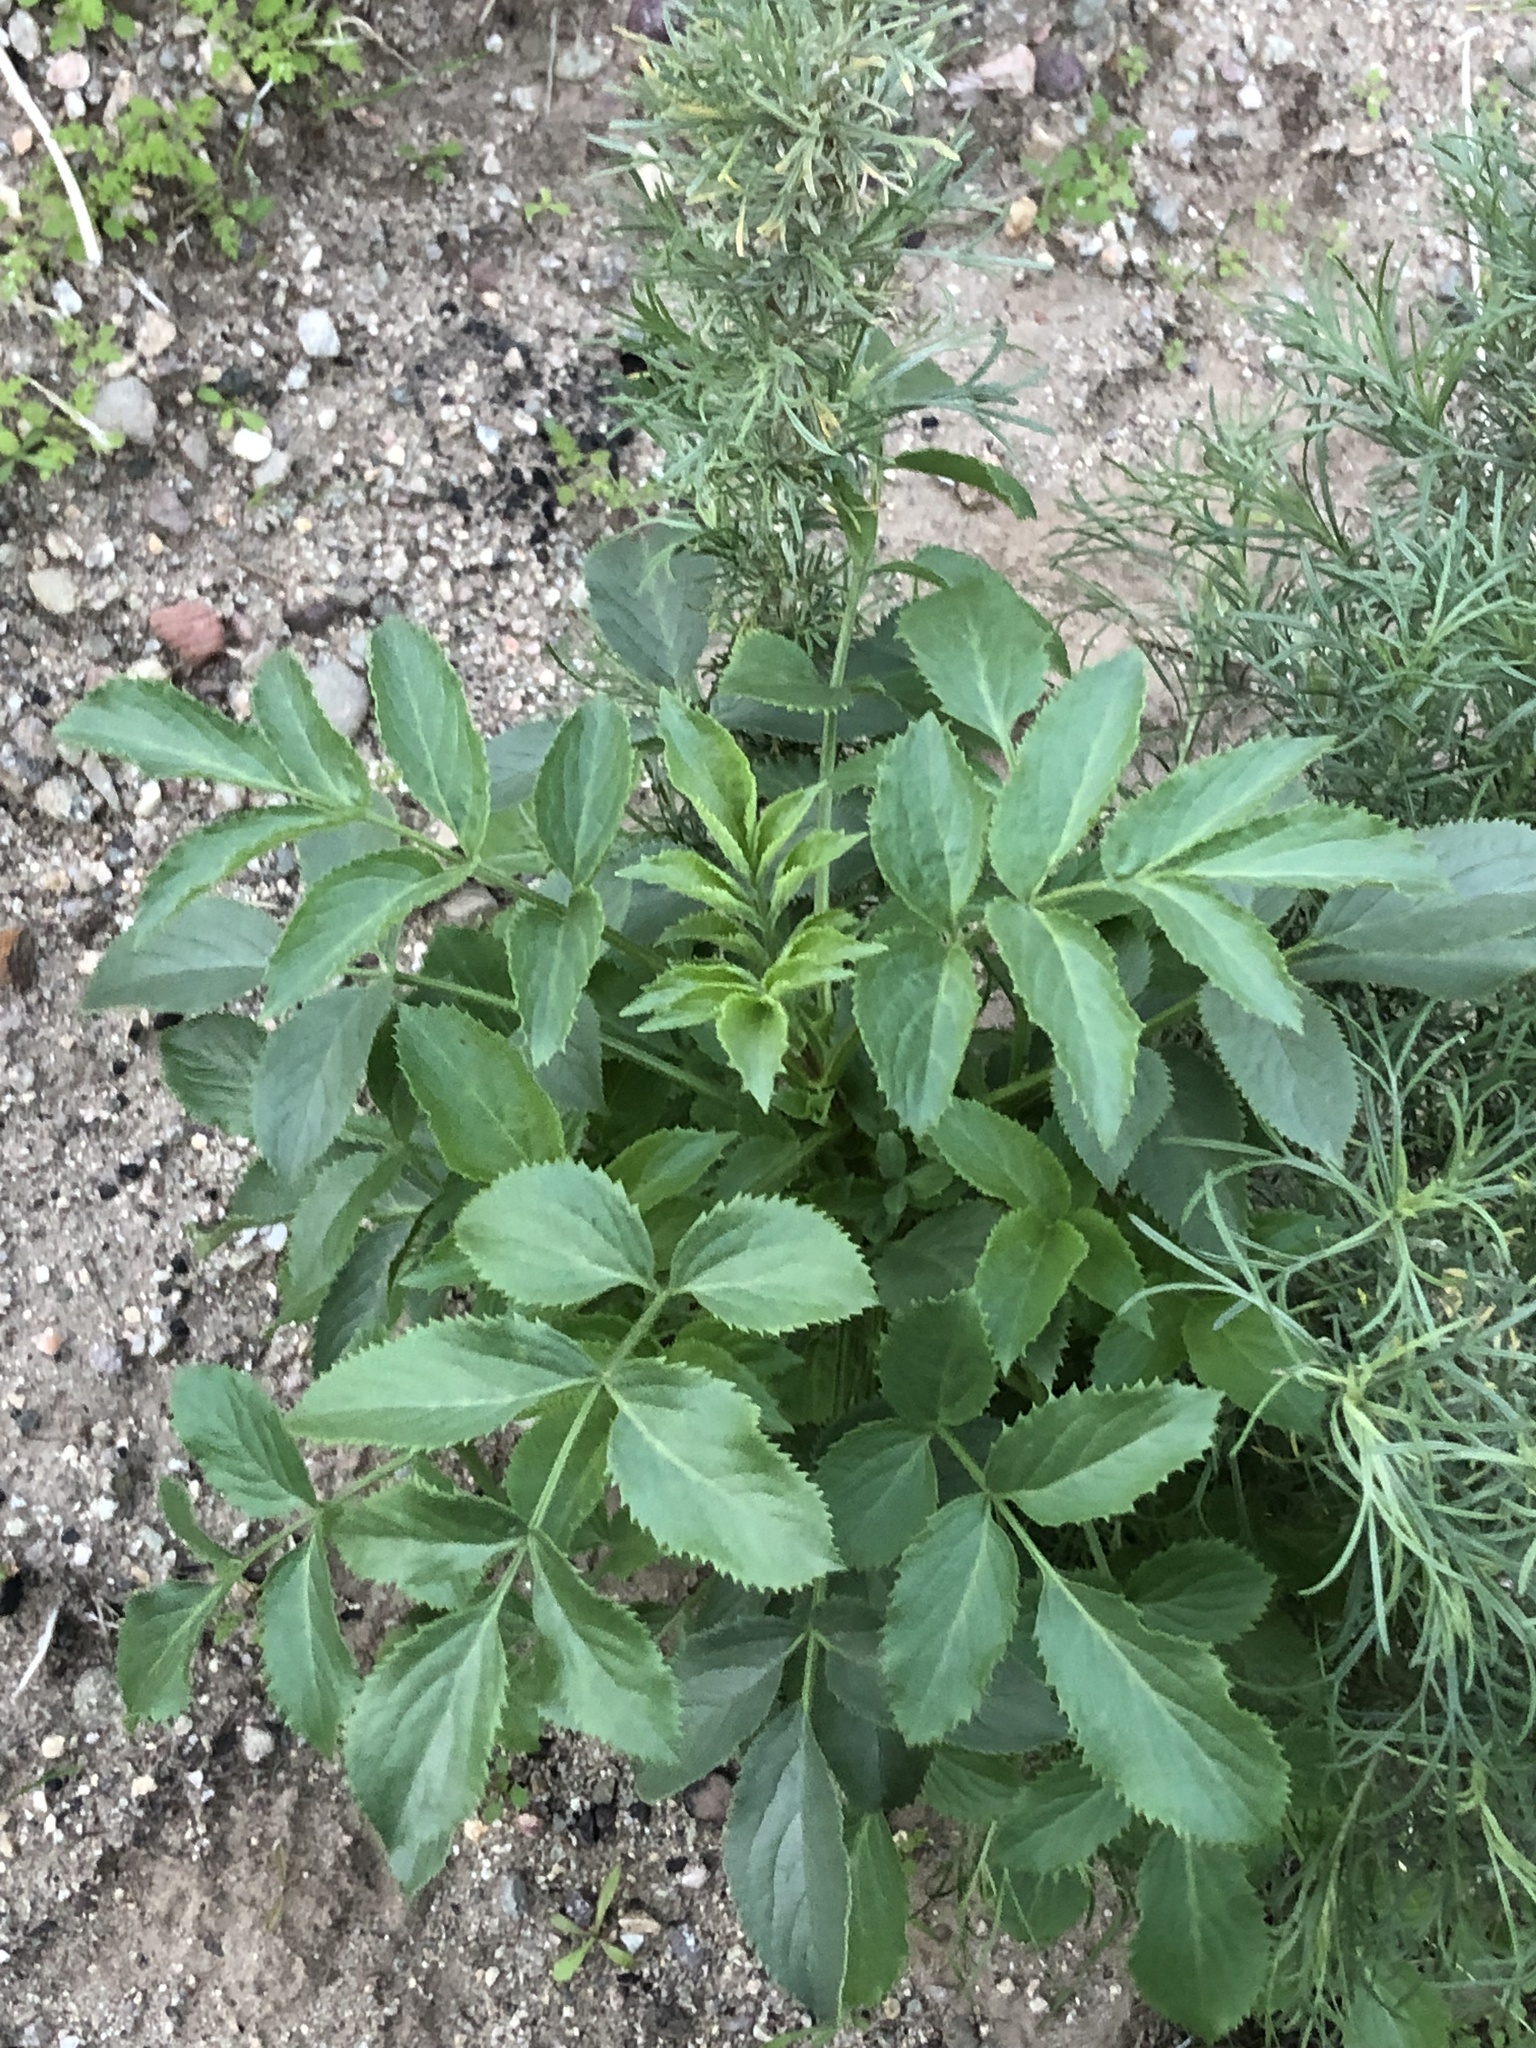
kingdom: Plantae
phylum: Tracheophyta
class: Magnoliopsida
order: Dipsacales
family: Viburnaceae
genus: Sambucus
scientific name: Sambucus cerulea
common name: Blue elder
